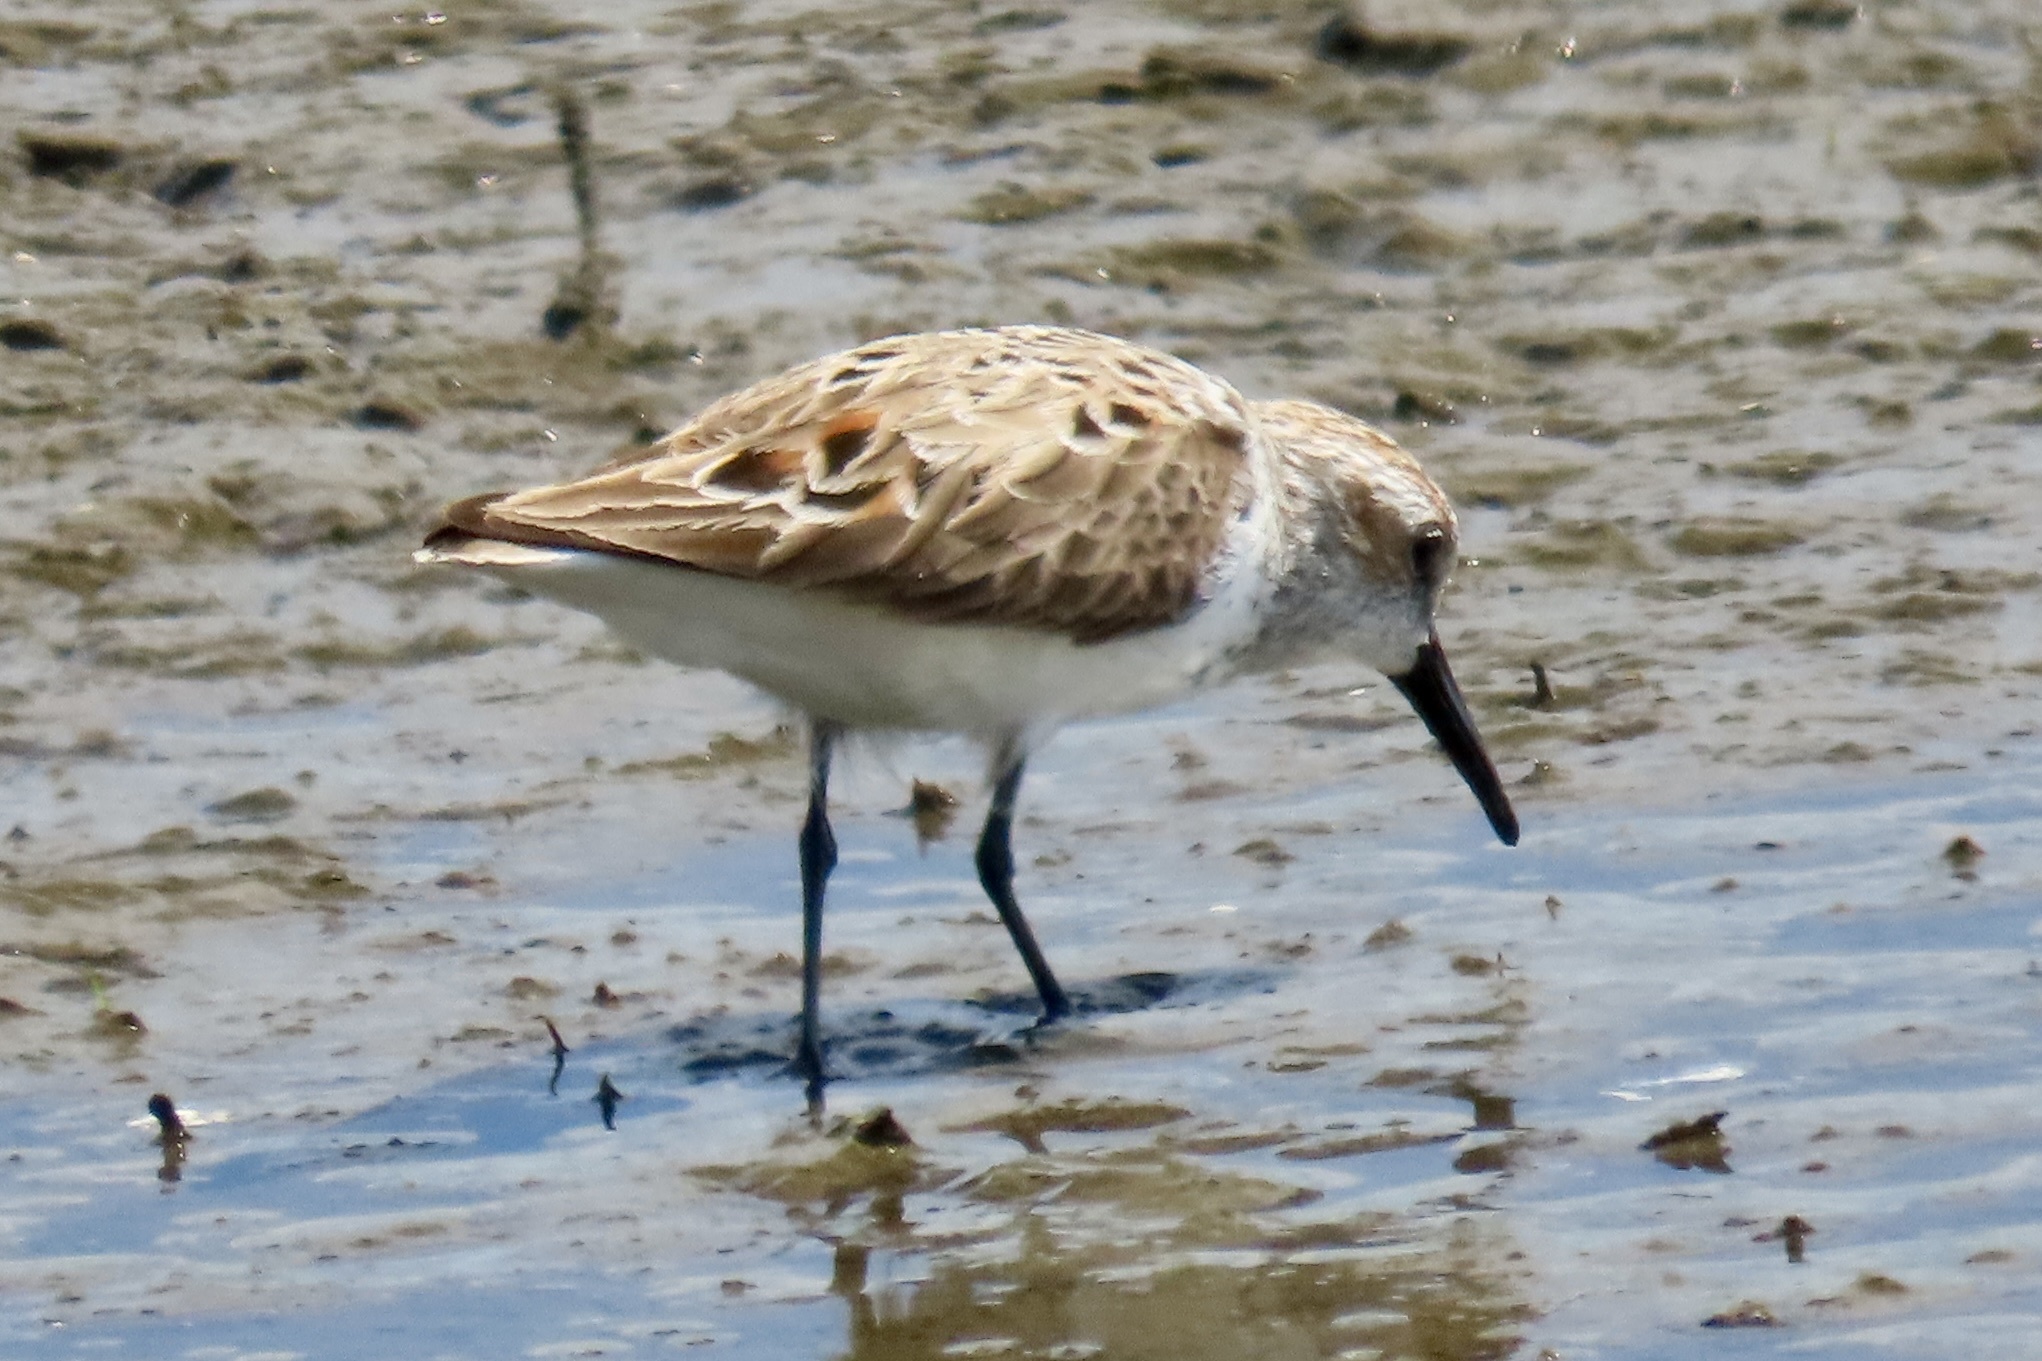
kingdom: Animalia
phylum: Chordata
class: Aves
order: Charadriiformes
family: Scolopacidae
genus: Calidris
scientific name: Calidris mauri
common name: Western sandpiper
